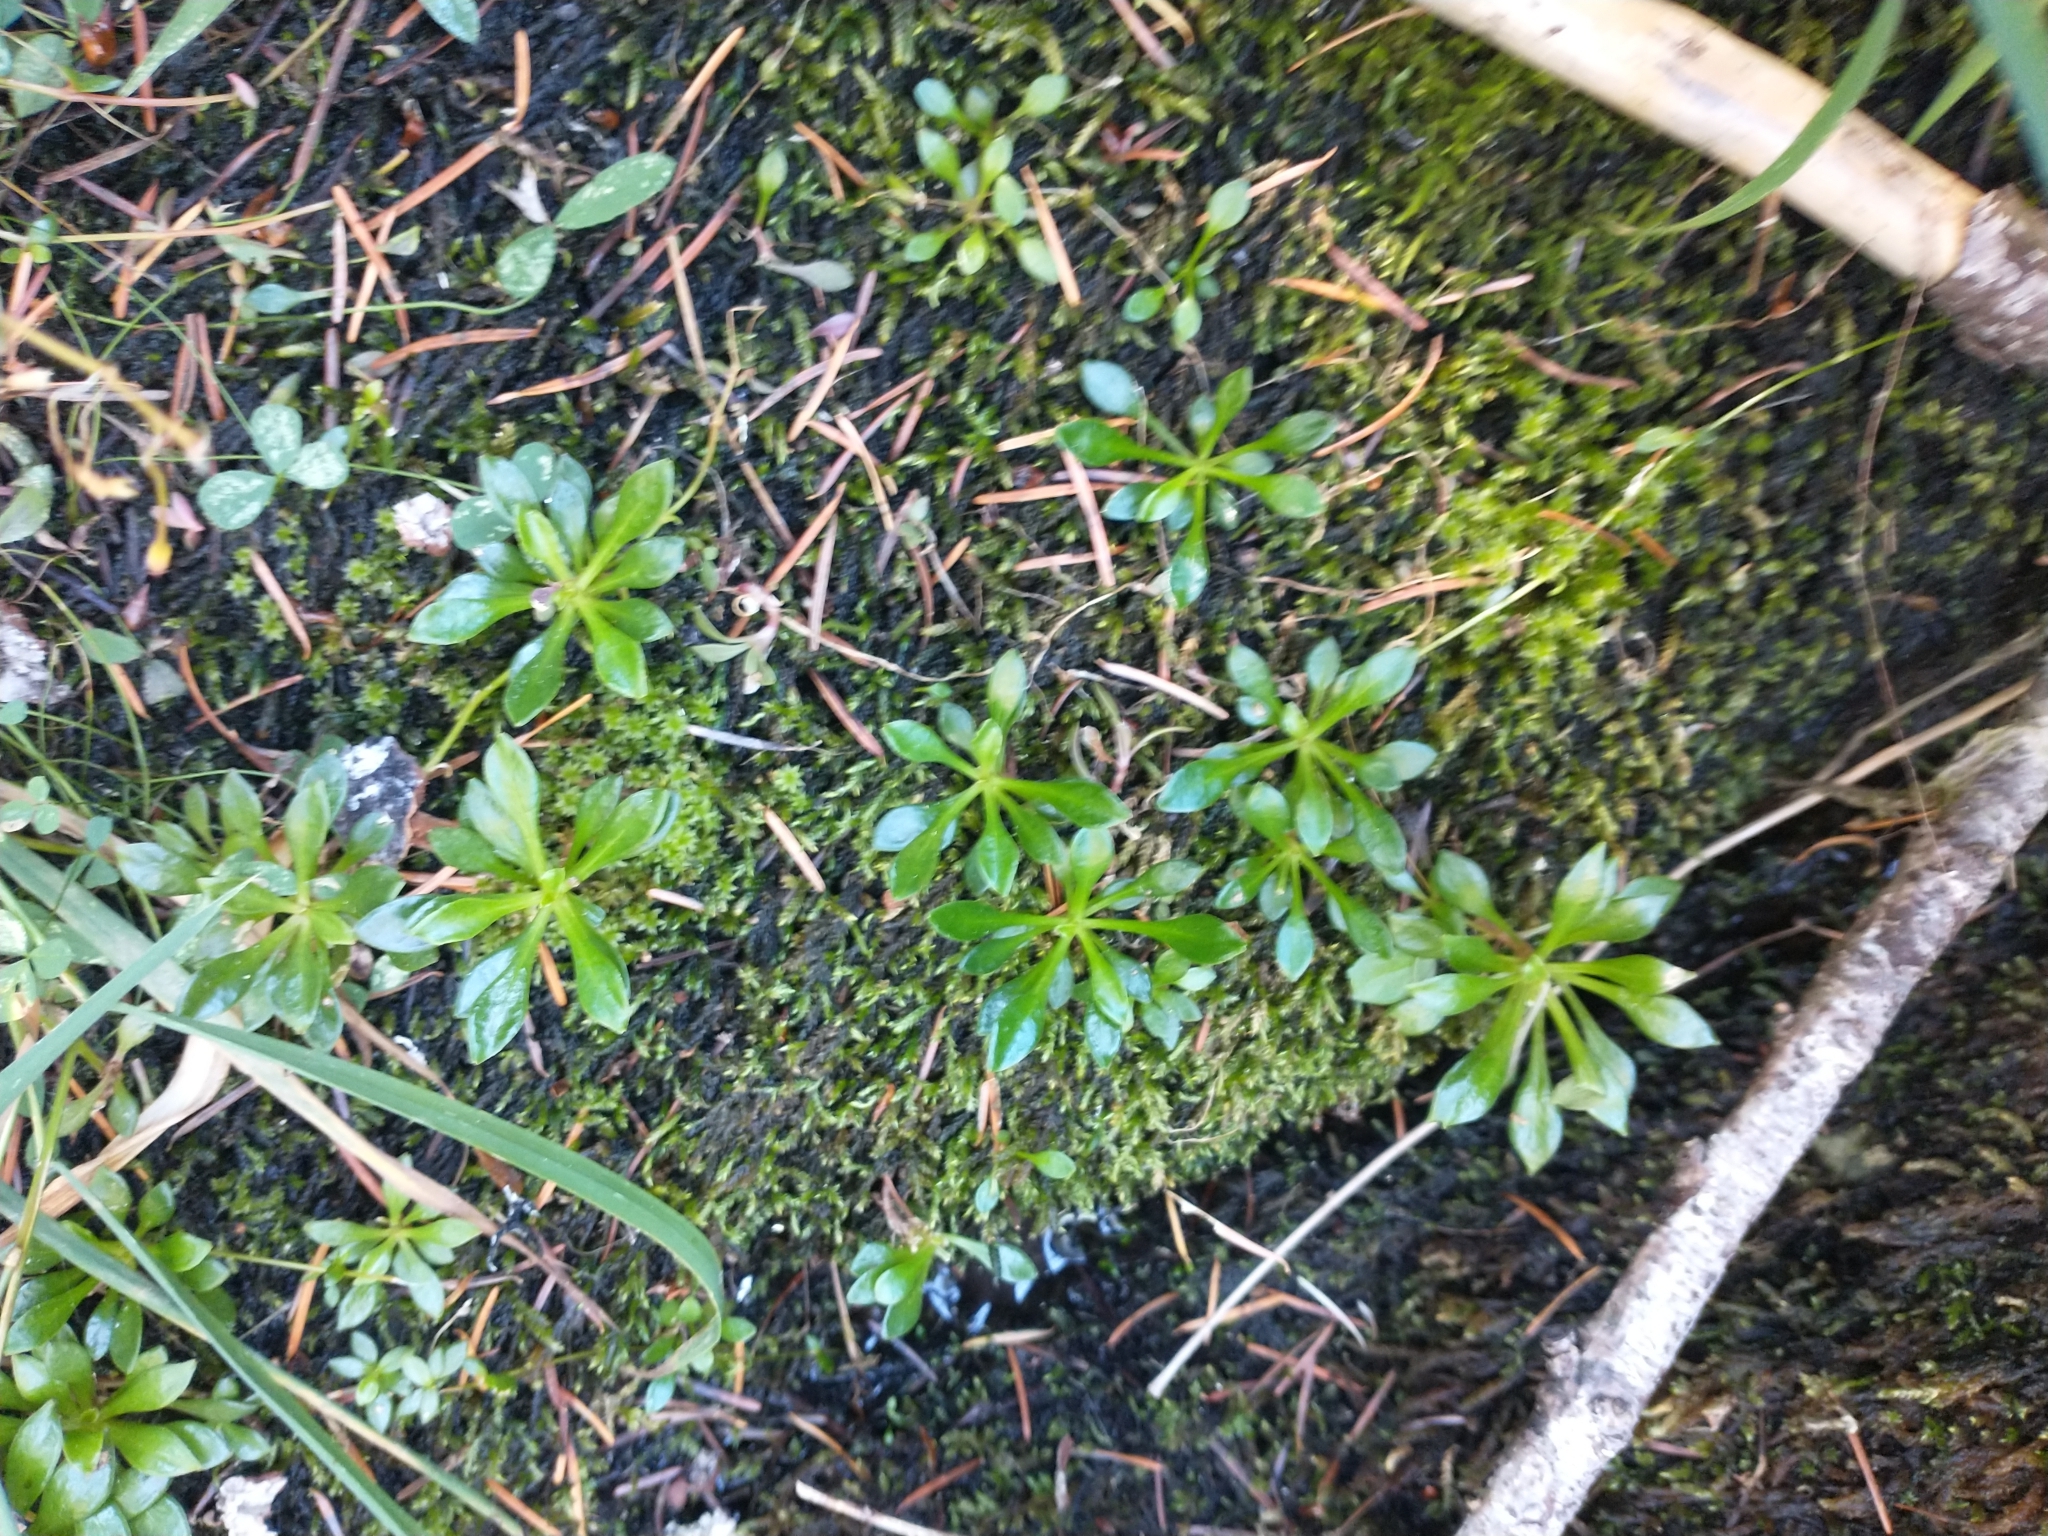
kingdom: Plantae
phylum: Tracheophyta
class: Magnoliopsida
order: Caryophyllales
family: Montiaceae
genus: Montia
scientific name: Montia parvifolia
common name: Small-leaved blinks
